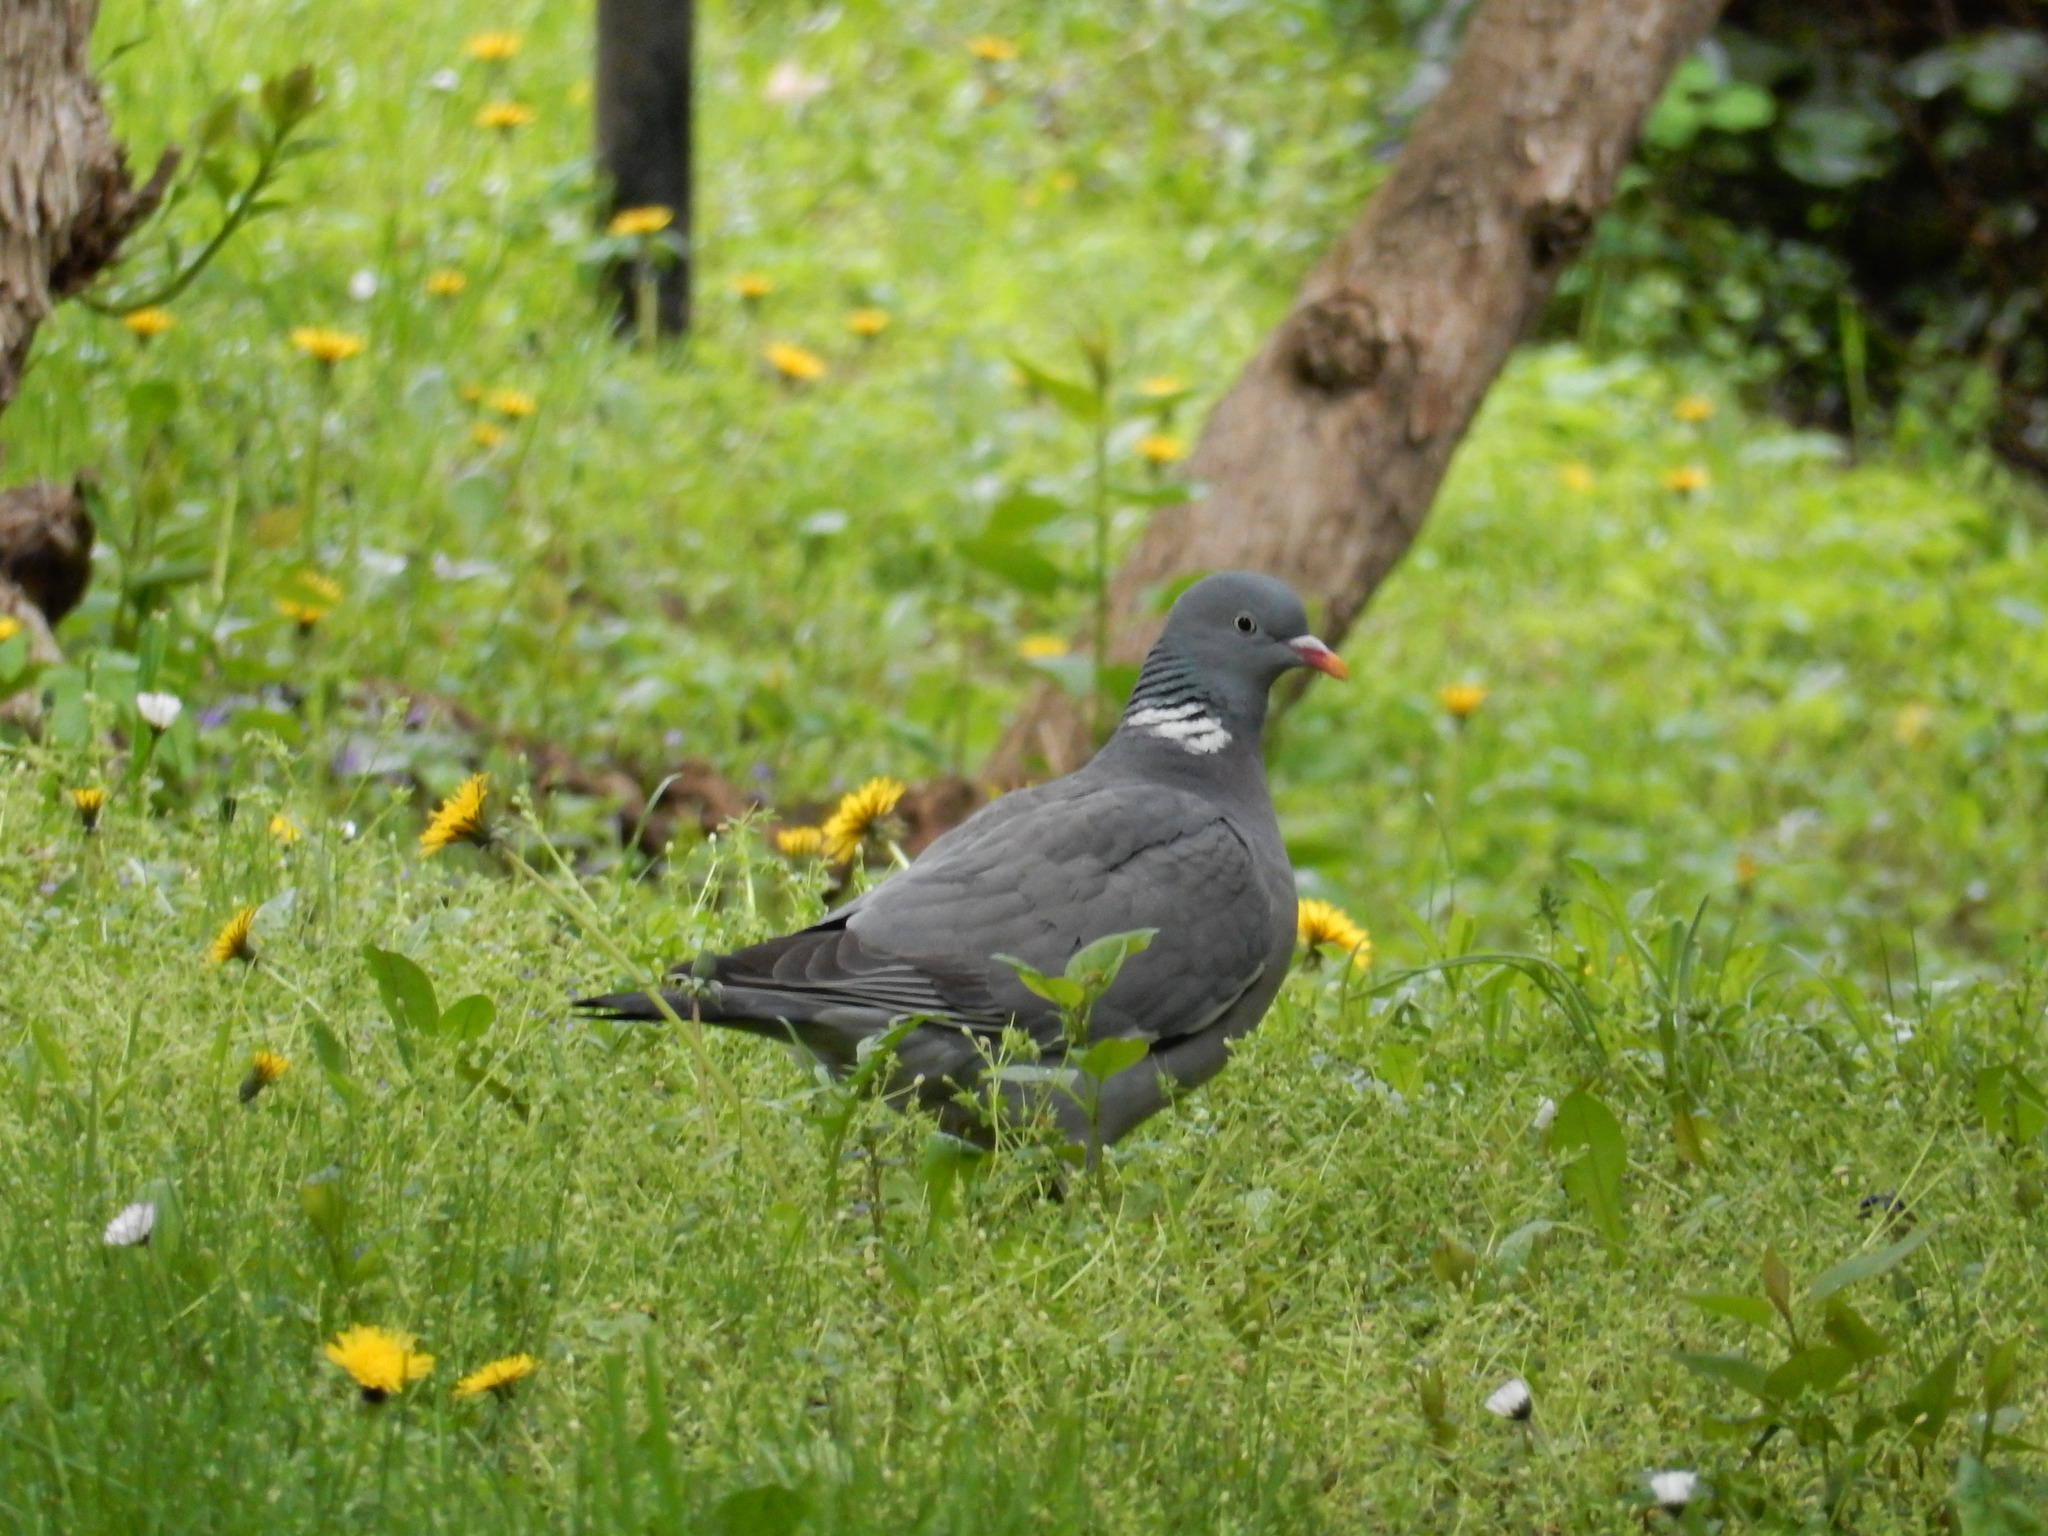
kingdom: Animalia
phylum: Chordata
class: Aves
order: Columbiformes
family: Columbidae
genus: Columba
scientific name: Columba palumbus
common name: Common wood pigeon
